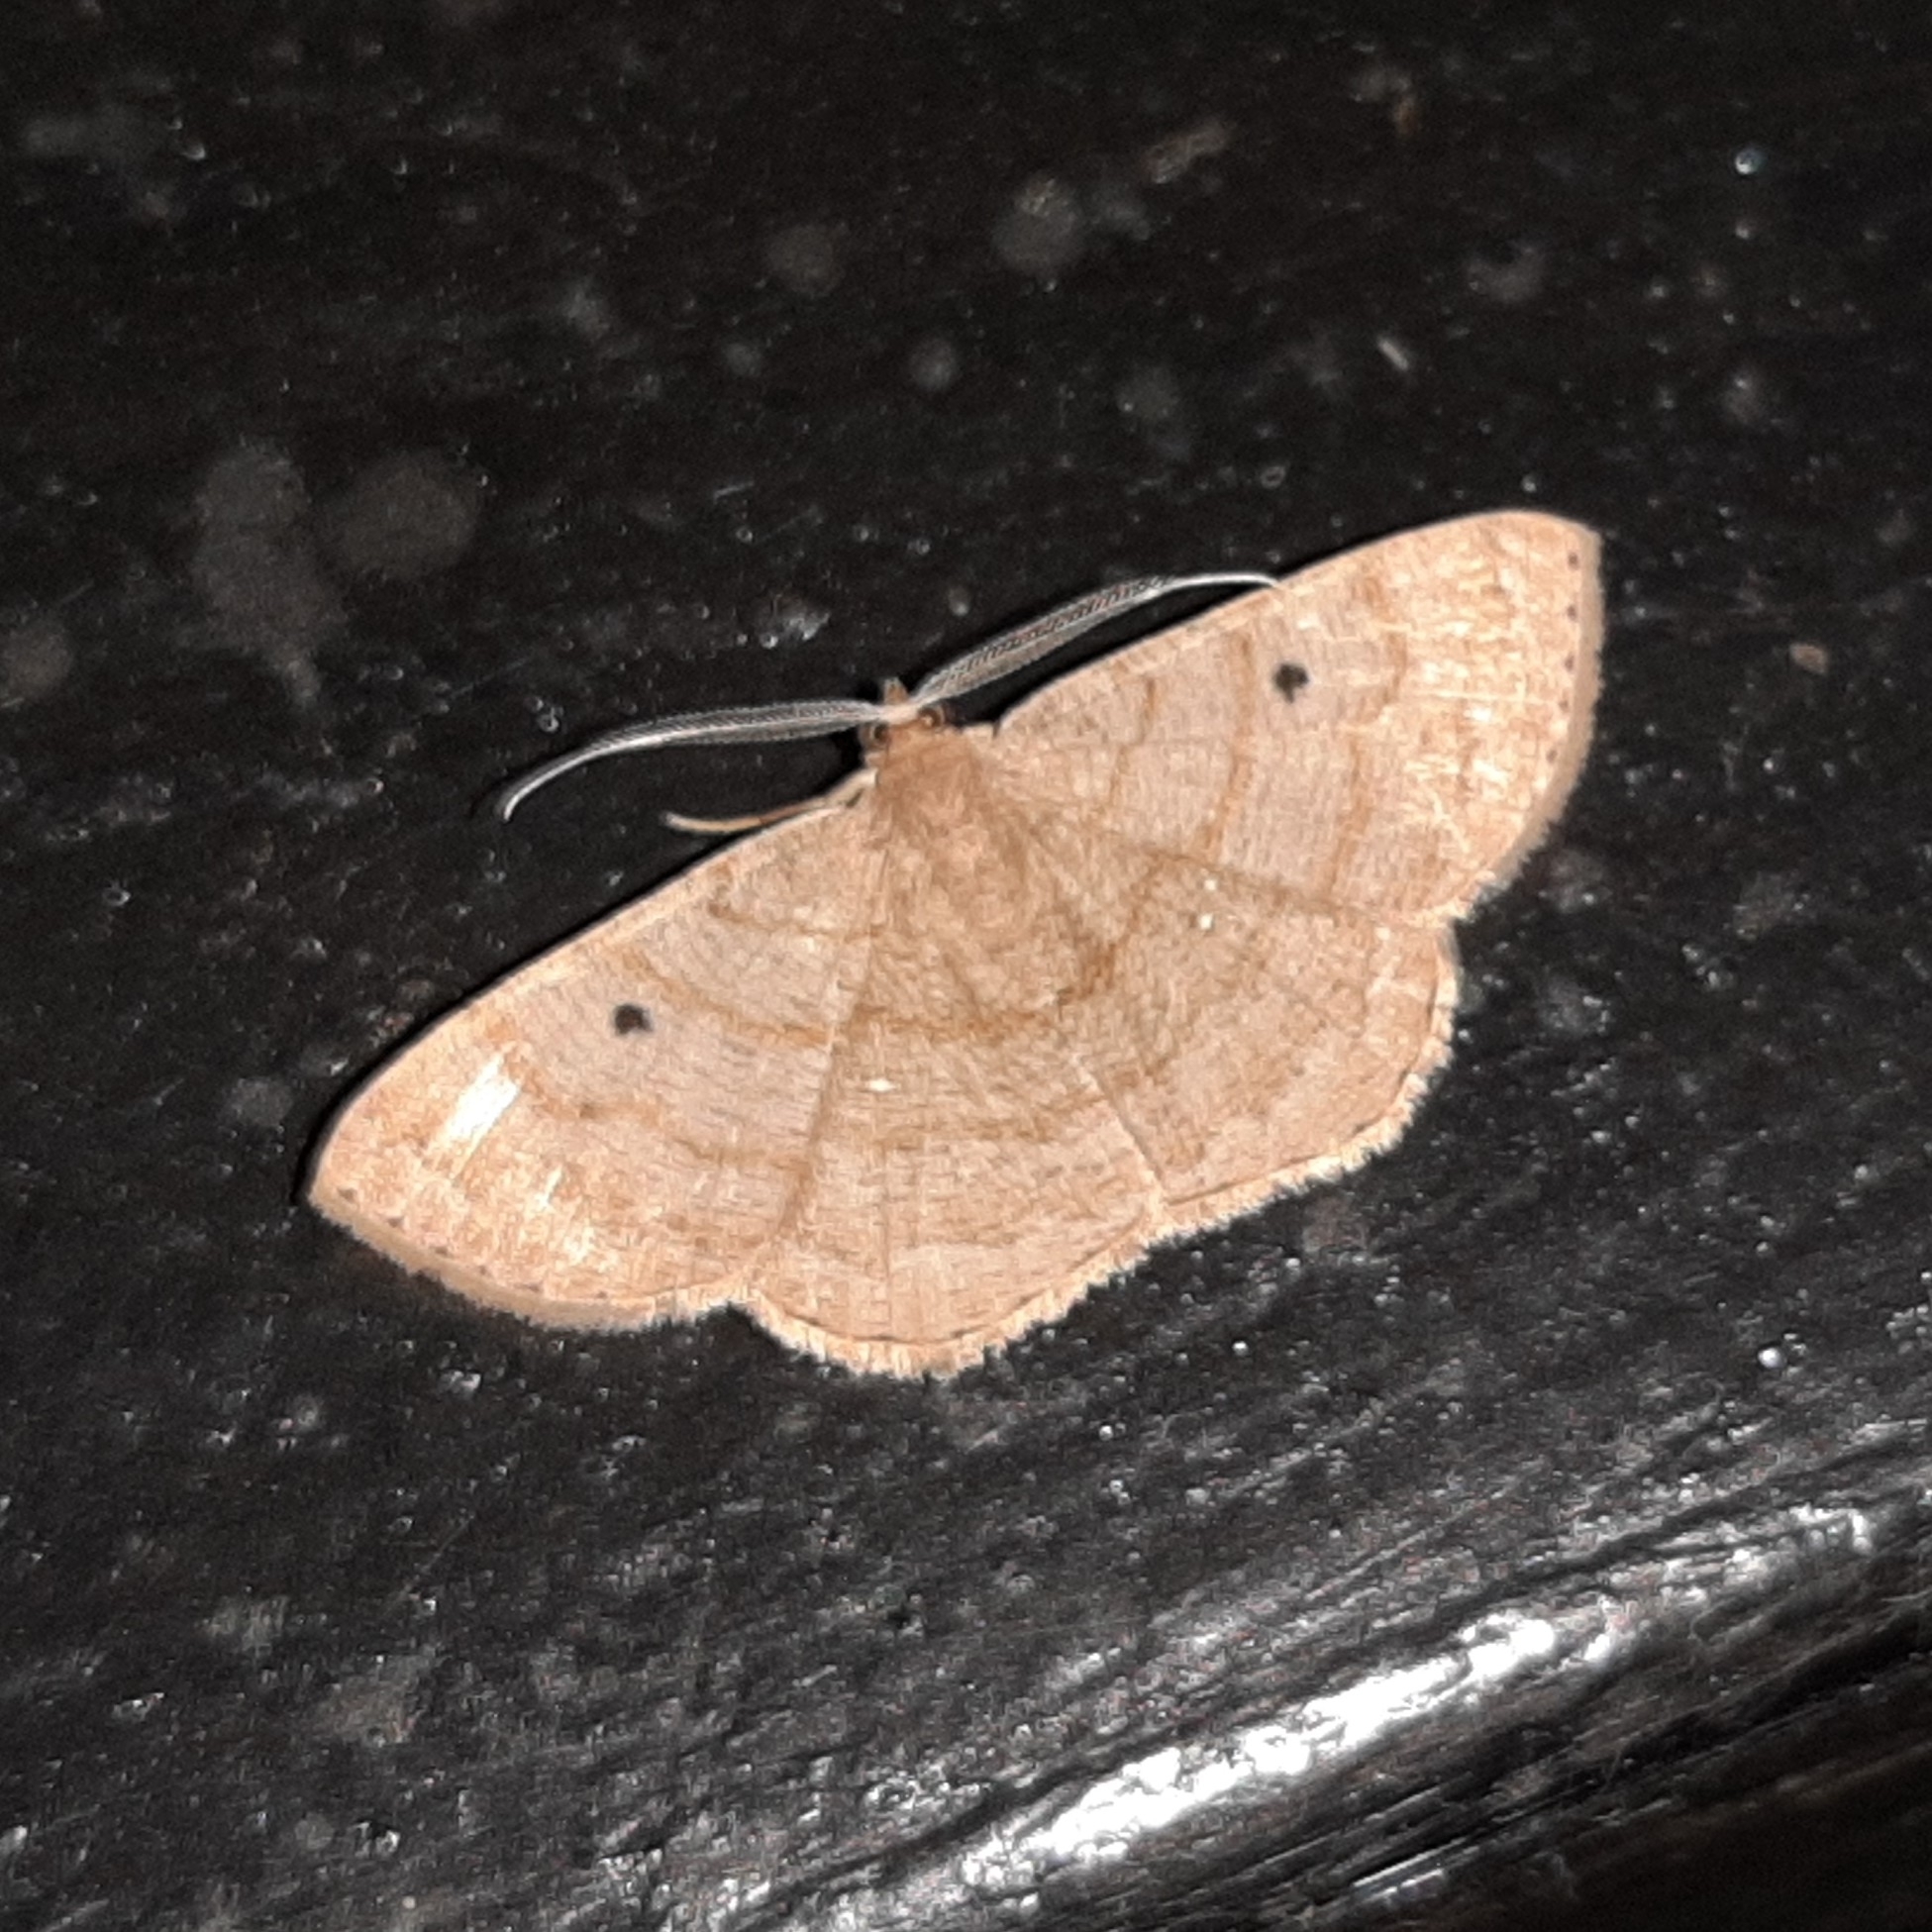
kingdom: Animalia
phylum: Arthropoda
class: Insecta
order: Lepidoptera
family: Geometridae
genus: Parilexia
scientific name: Parilexia nicetaria
